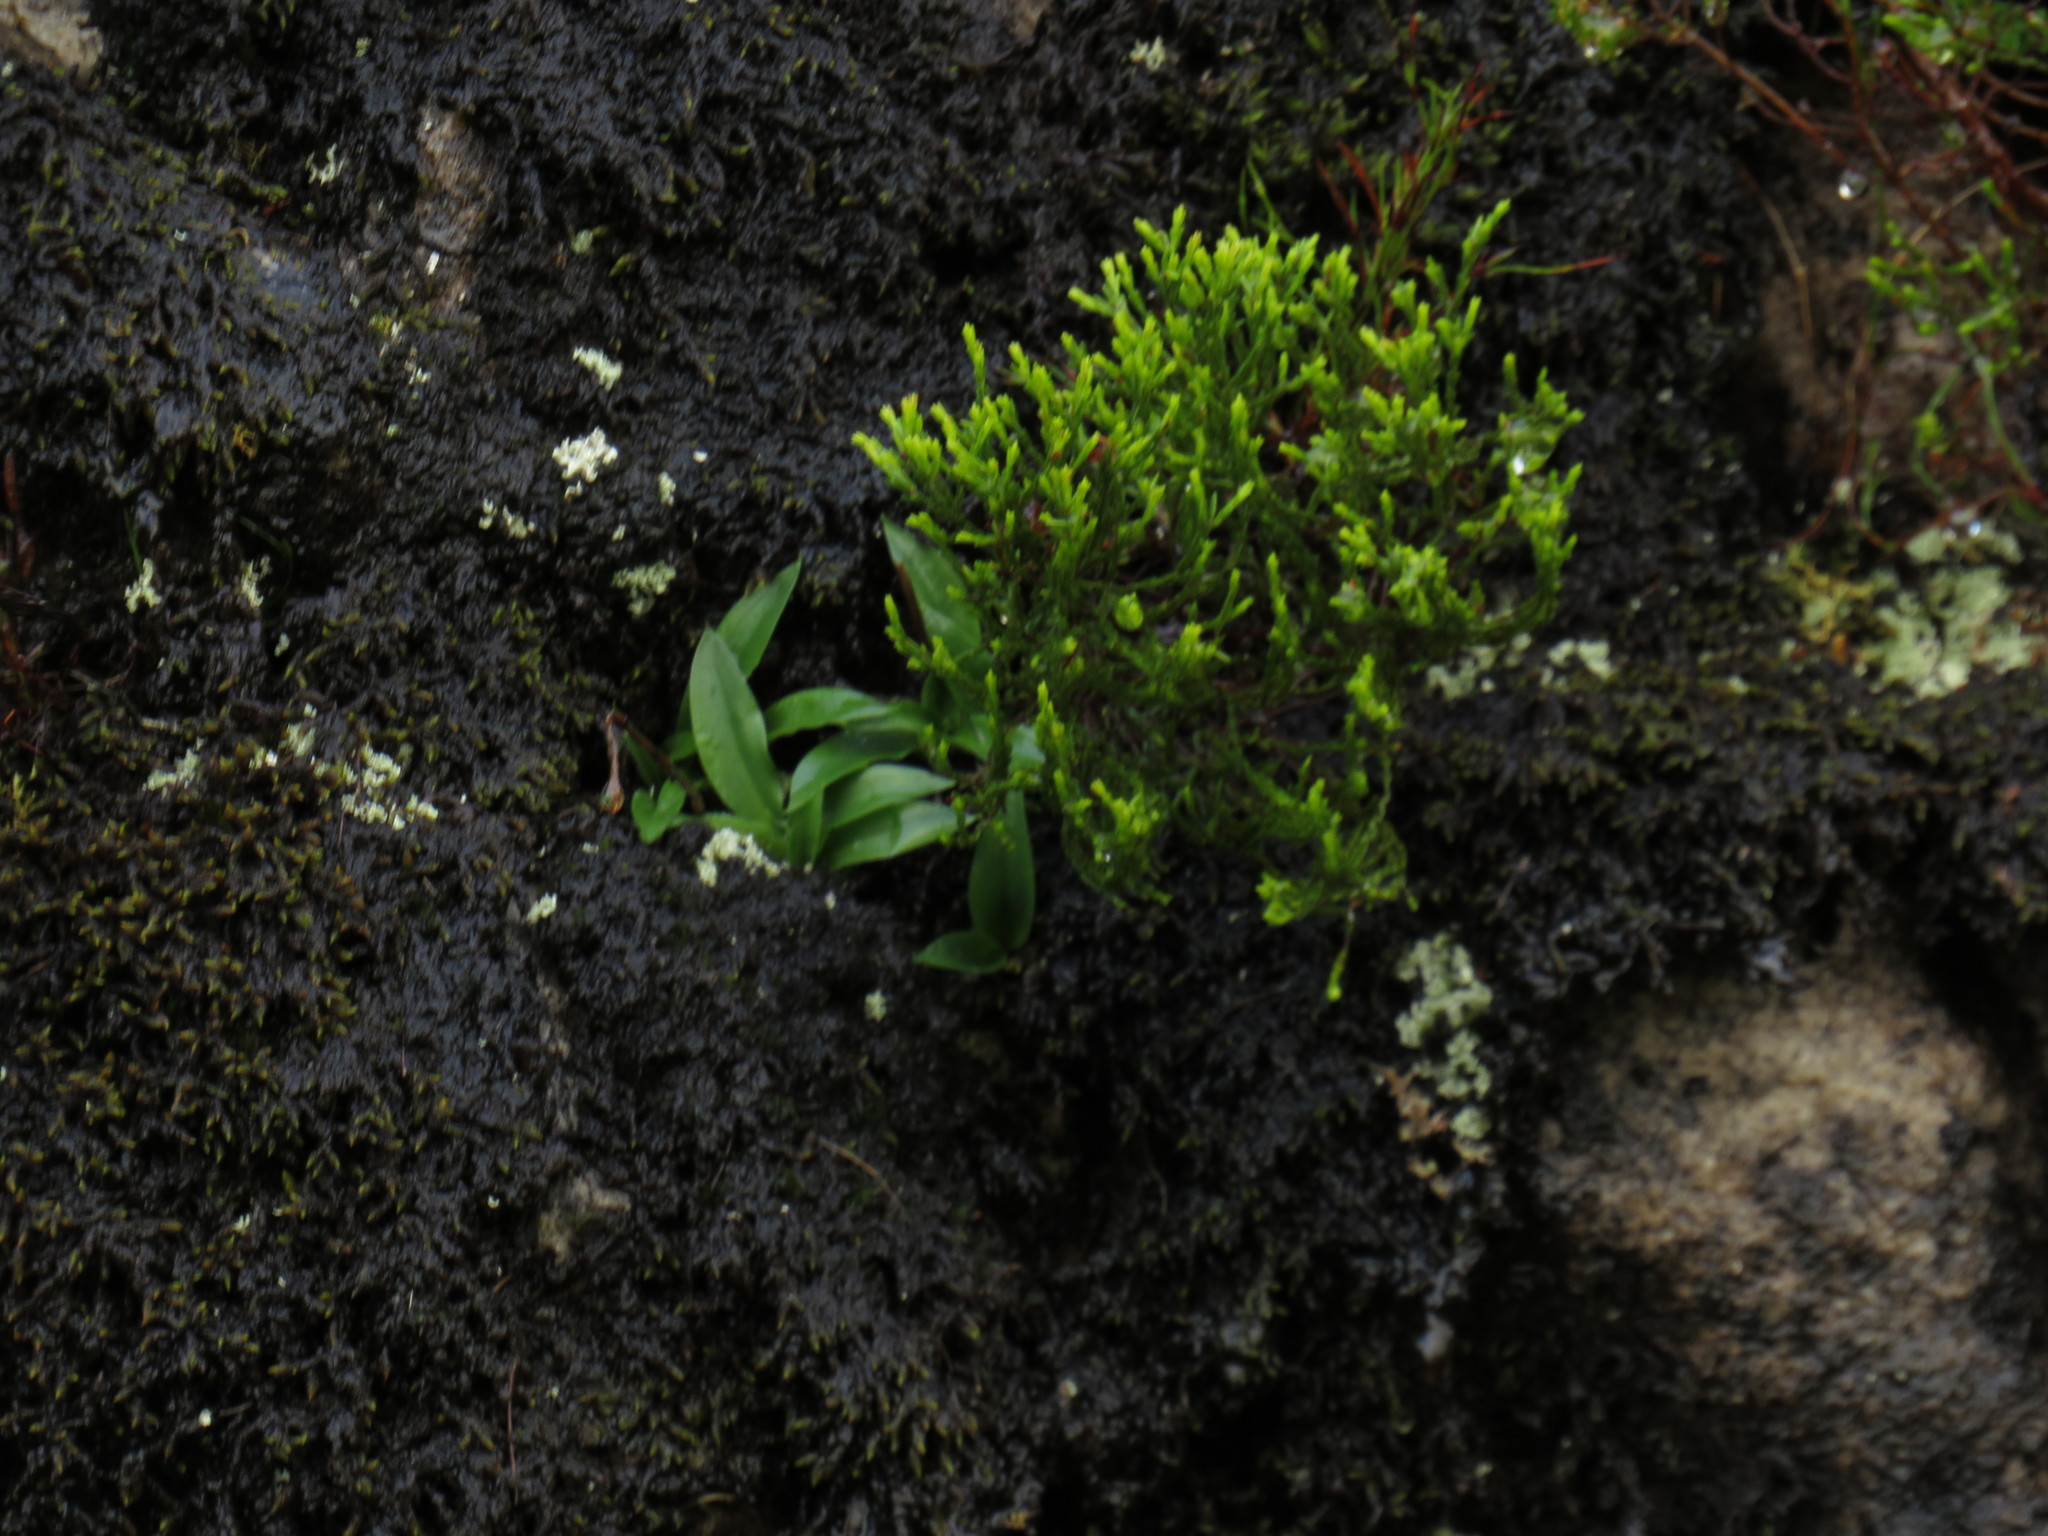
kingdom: Plantae
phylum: Tracheophyta
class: Liliopsida
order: Asparagales
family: Orchidaceae
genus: Disa
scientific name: Disa longicornu
